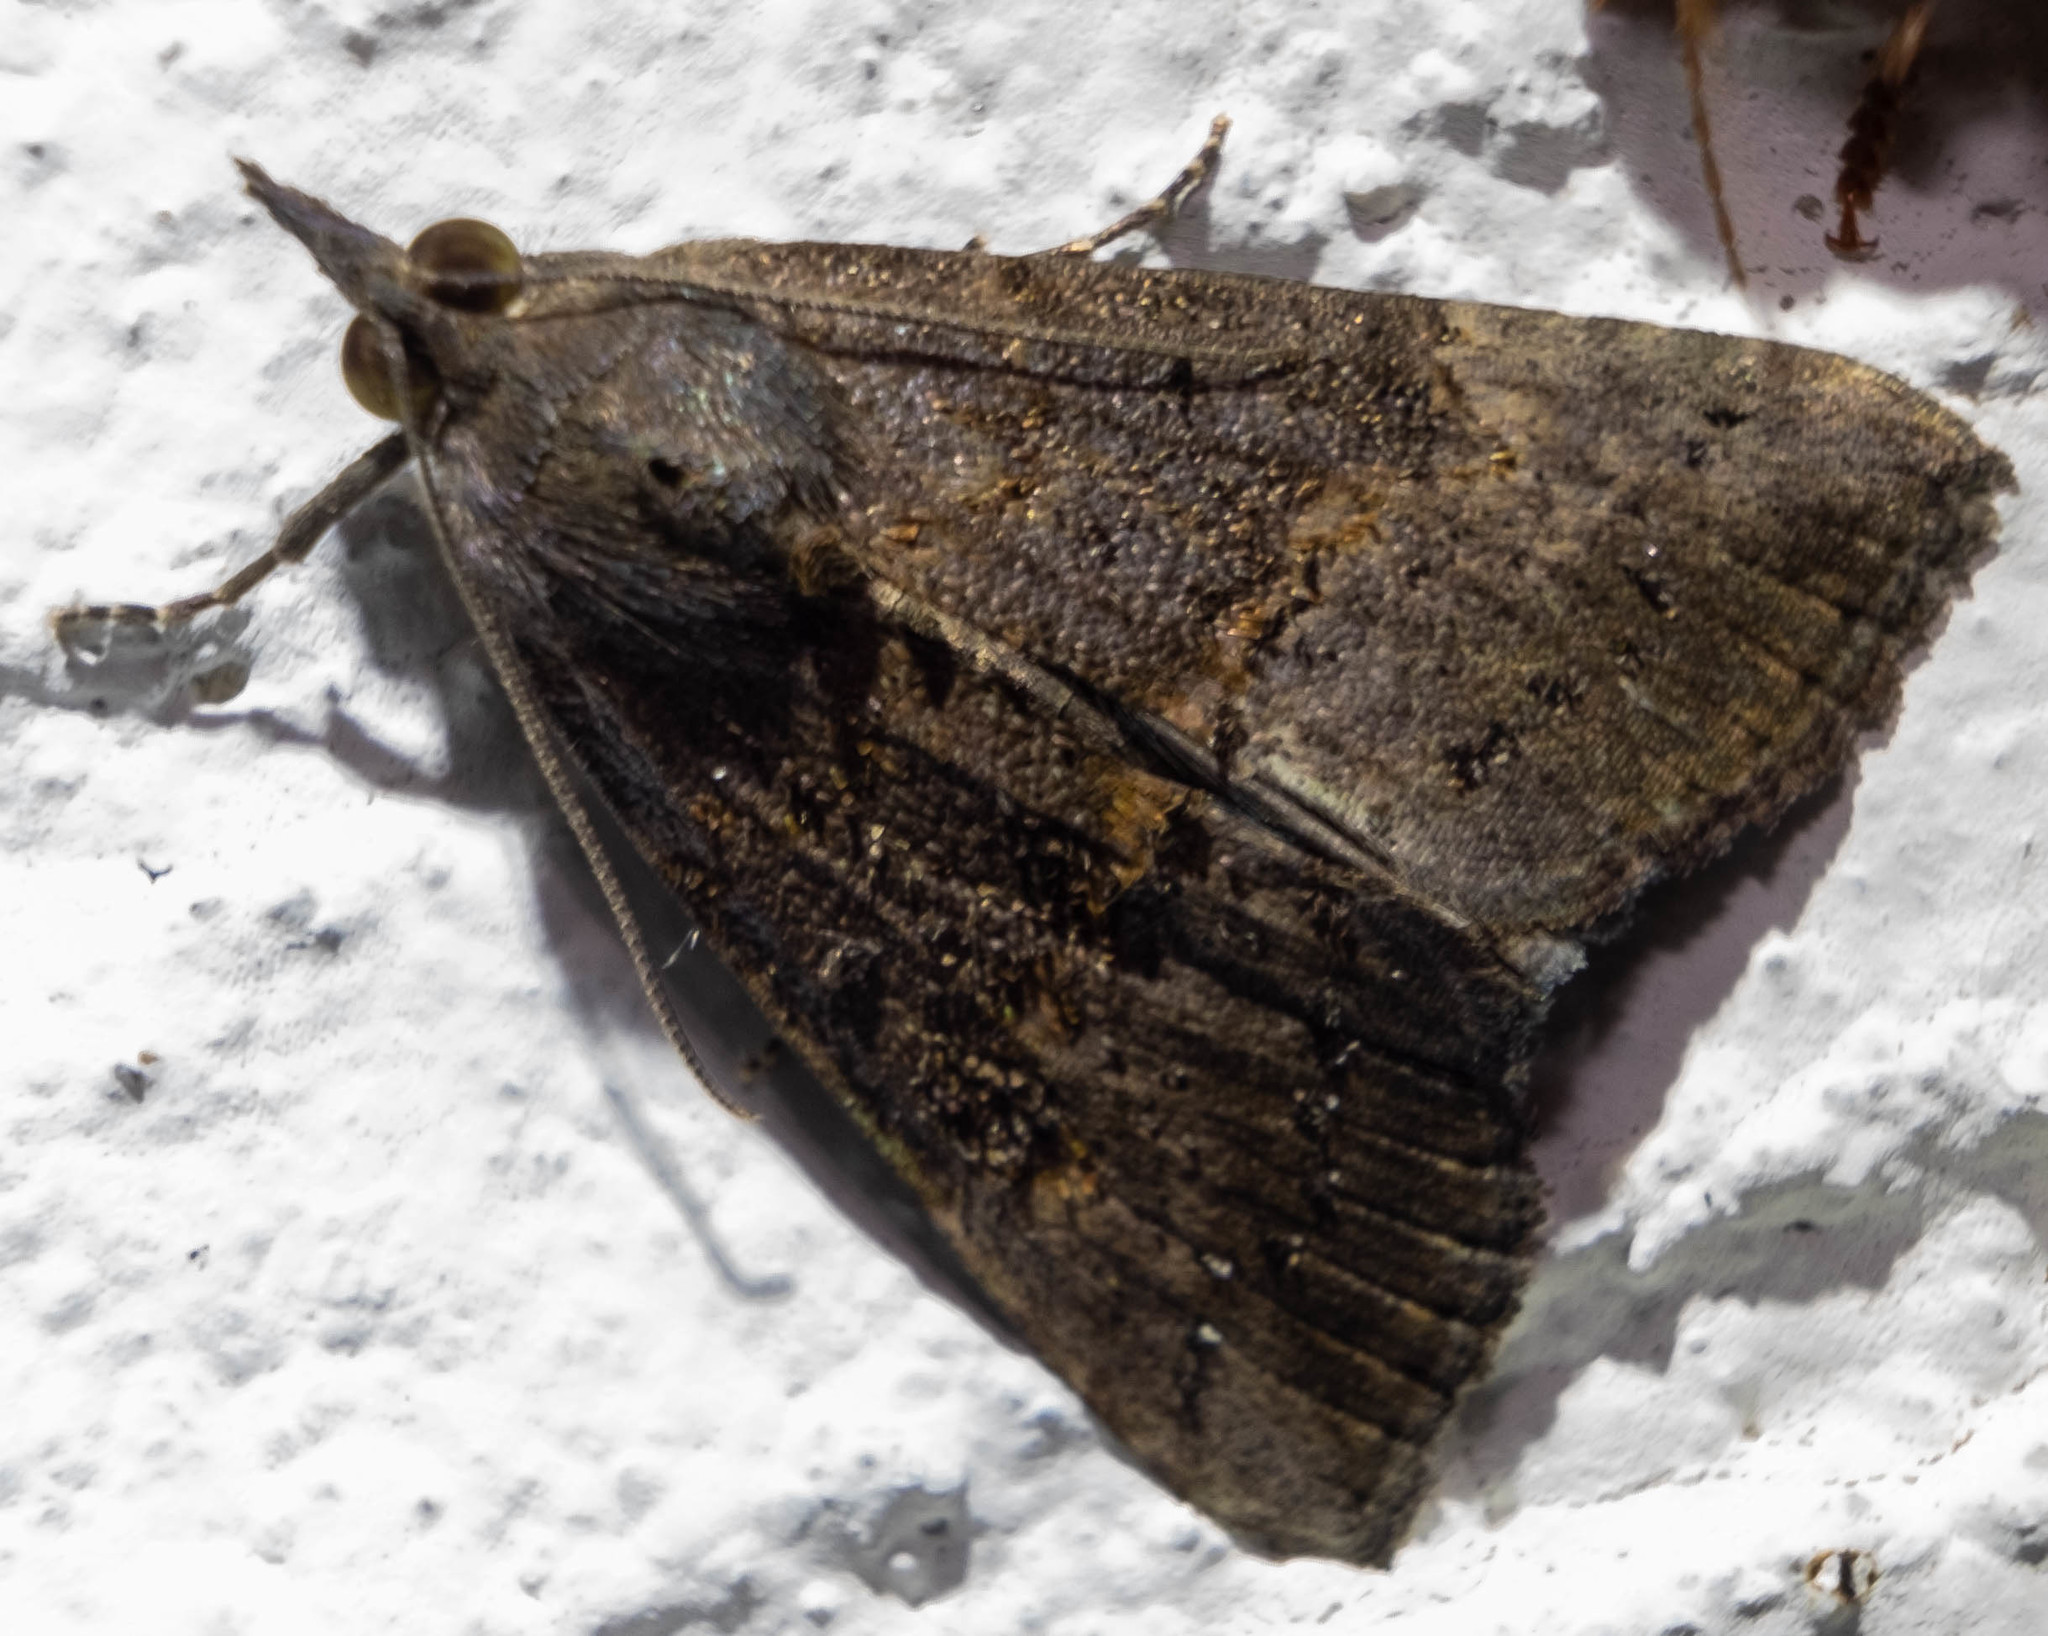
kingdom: Animalia
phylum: Arthropoda
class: Insecta
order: Lepidoptera
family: Erebidae
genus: Hypena
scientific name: Hypena scabra
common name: Green cloverworm
